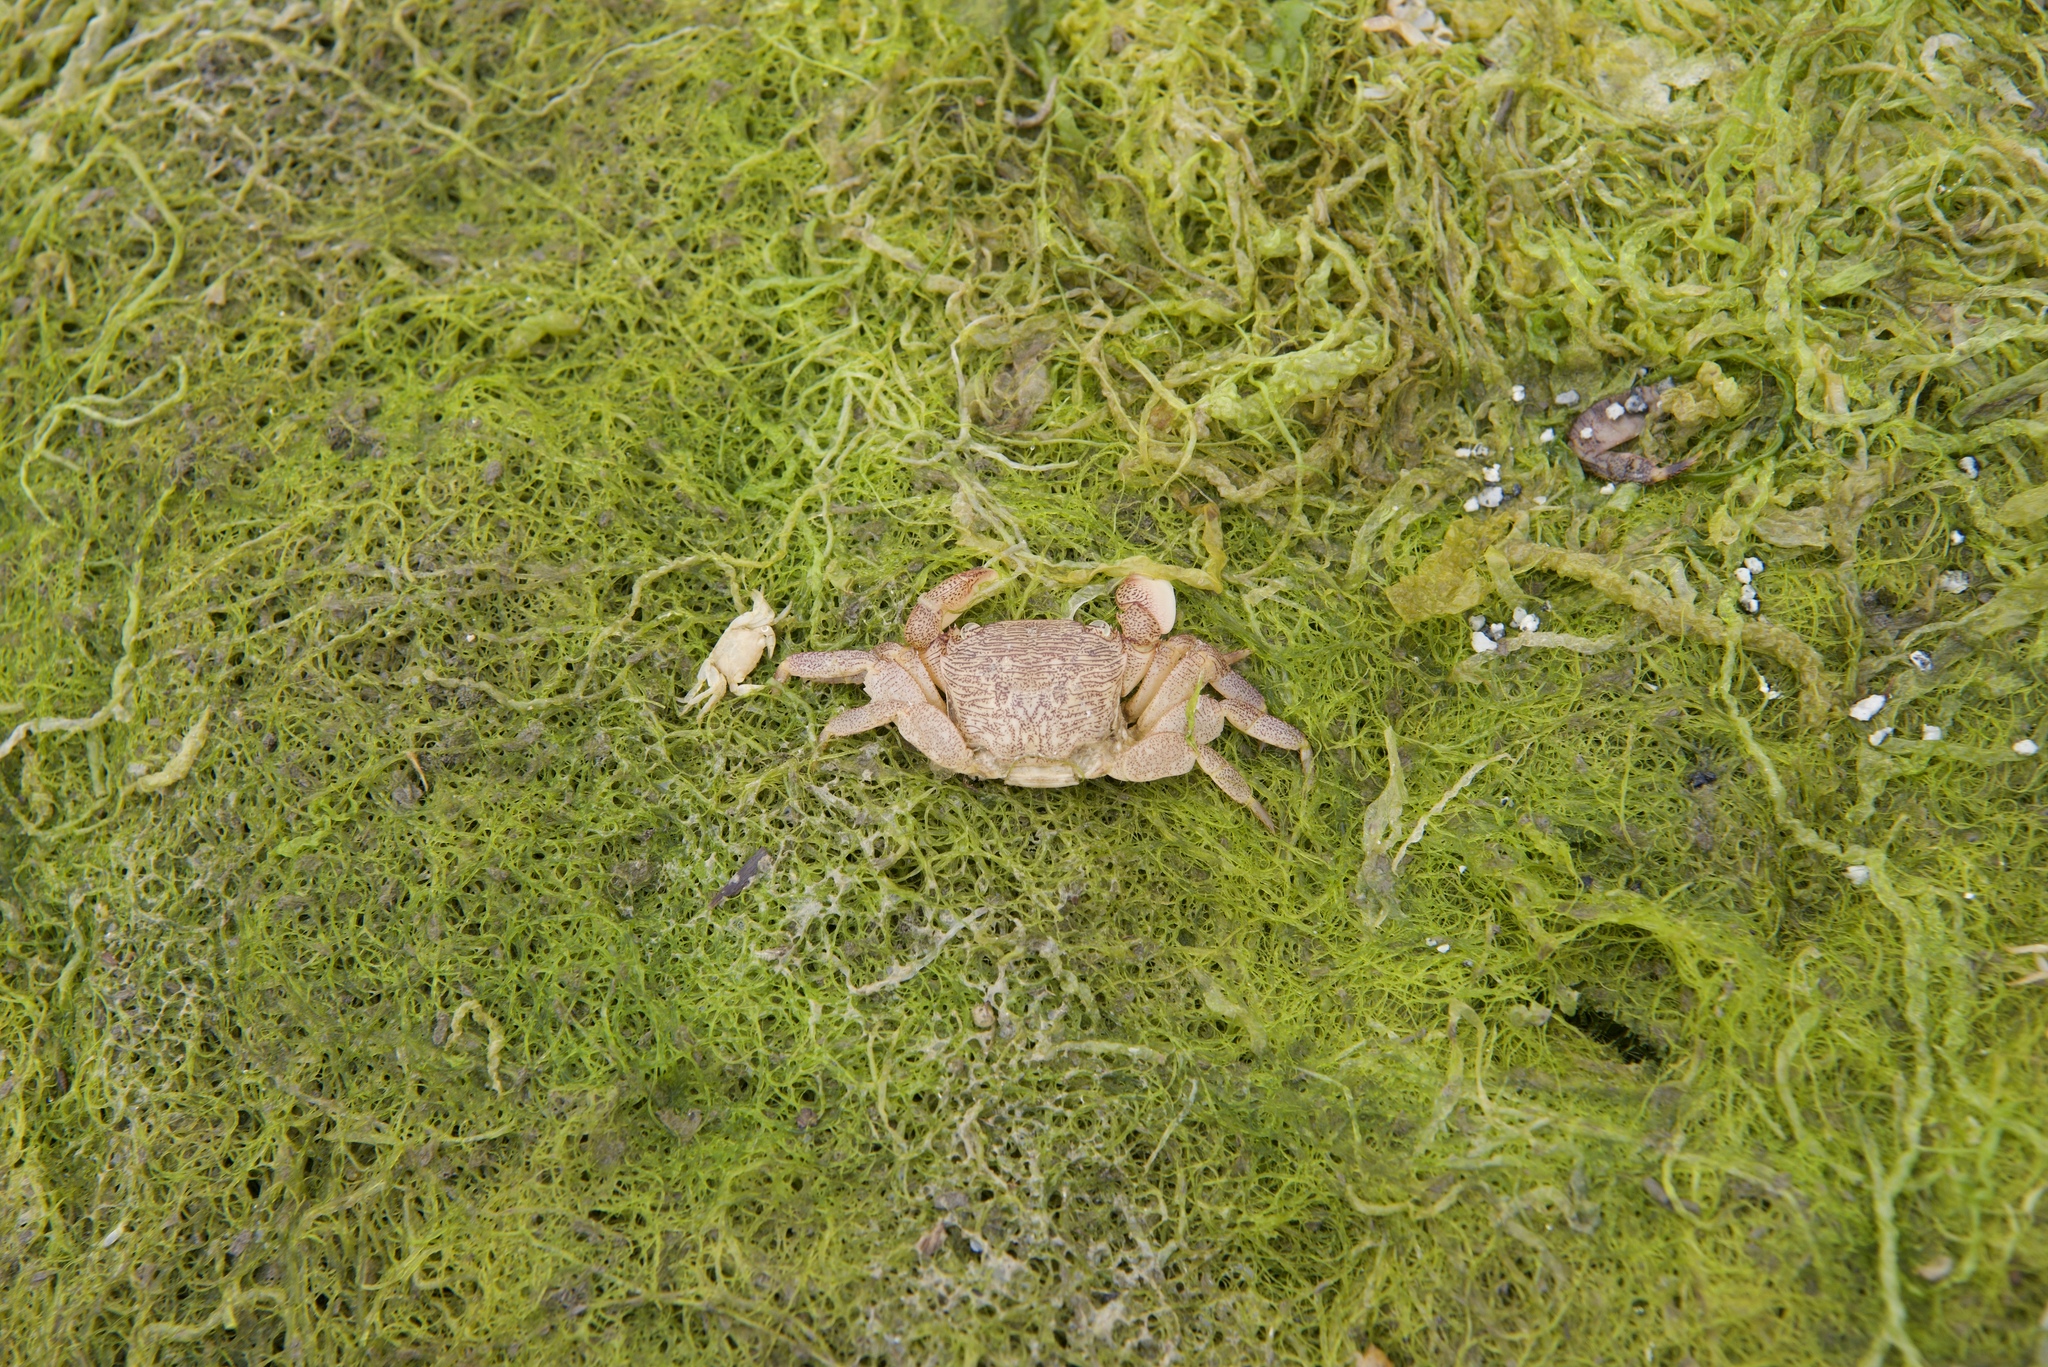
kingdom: Animalia
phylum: Arthropoda
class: Malacostraca
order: Decapoda
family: Varunidae
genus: Hemigrapsus
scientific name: Hemigrapsus oregonensis
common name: Yellow shore crab
